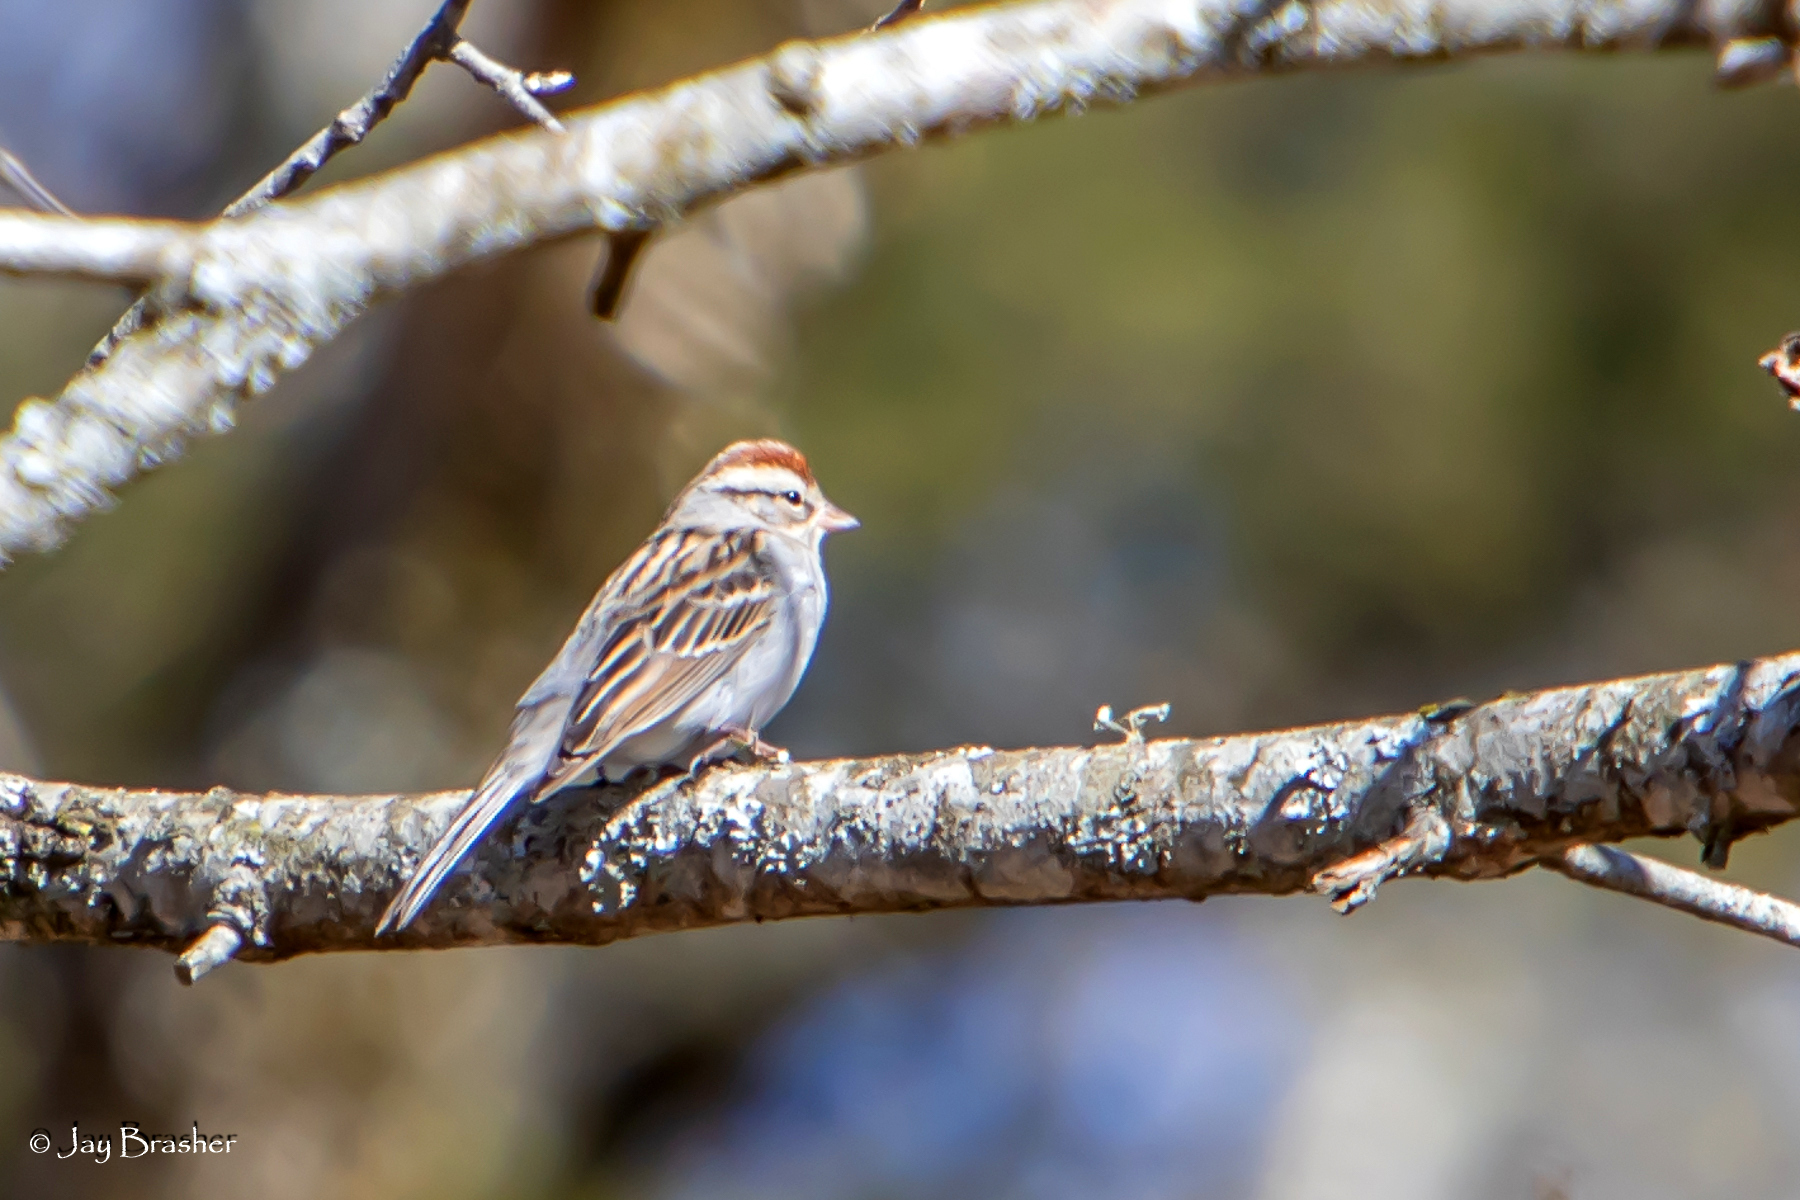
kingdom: Animalia
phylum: Chordata
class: Aves
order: Passeriformes
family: Passerellidae
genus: Spizella
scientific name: Spizella passerina
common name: Chipping sparrow
